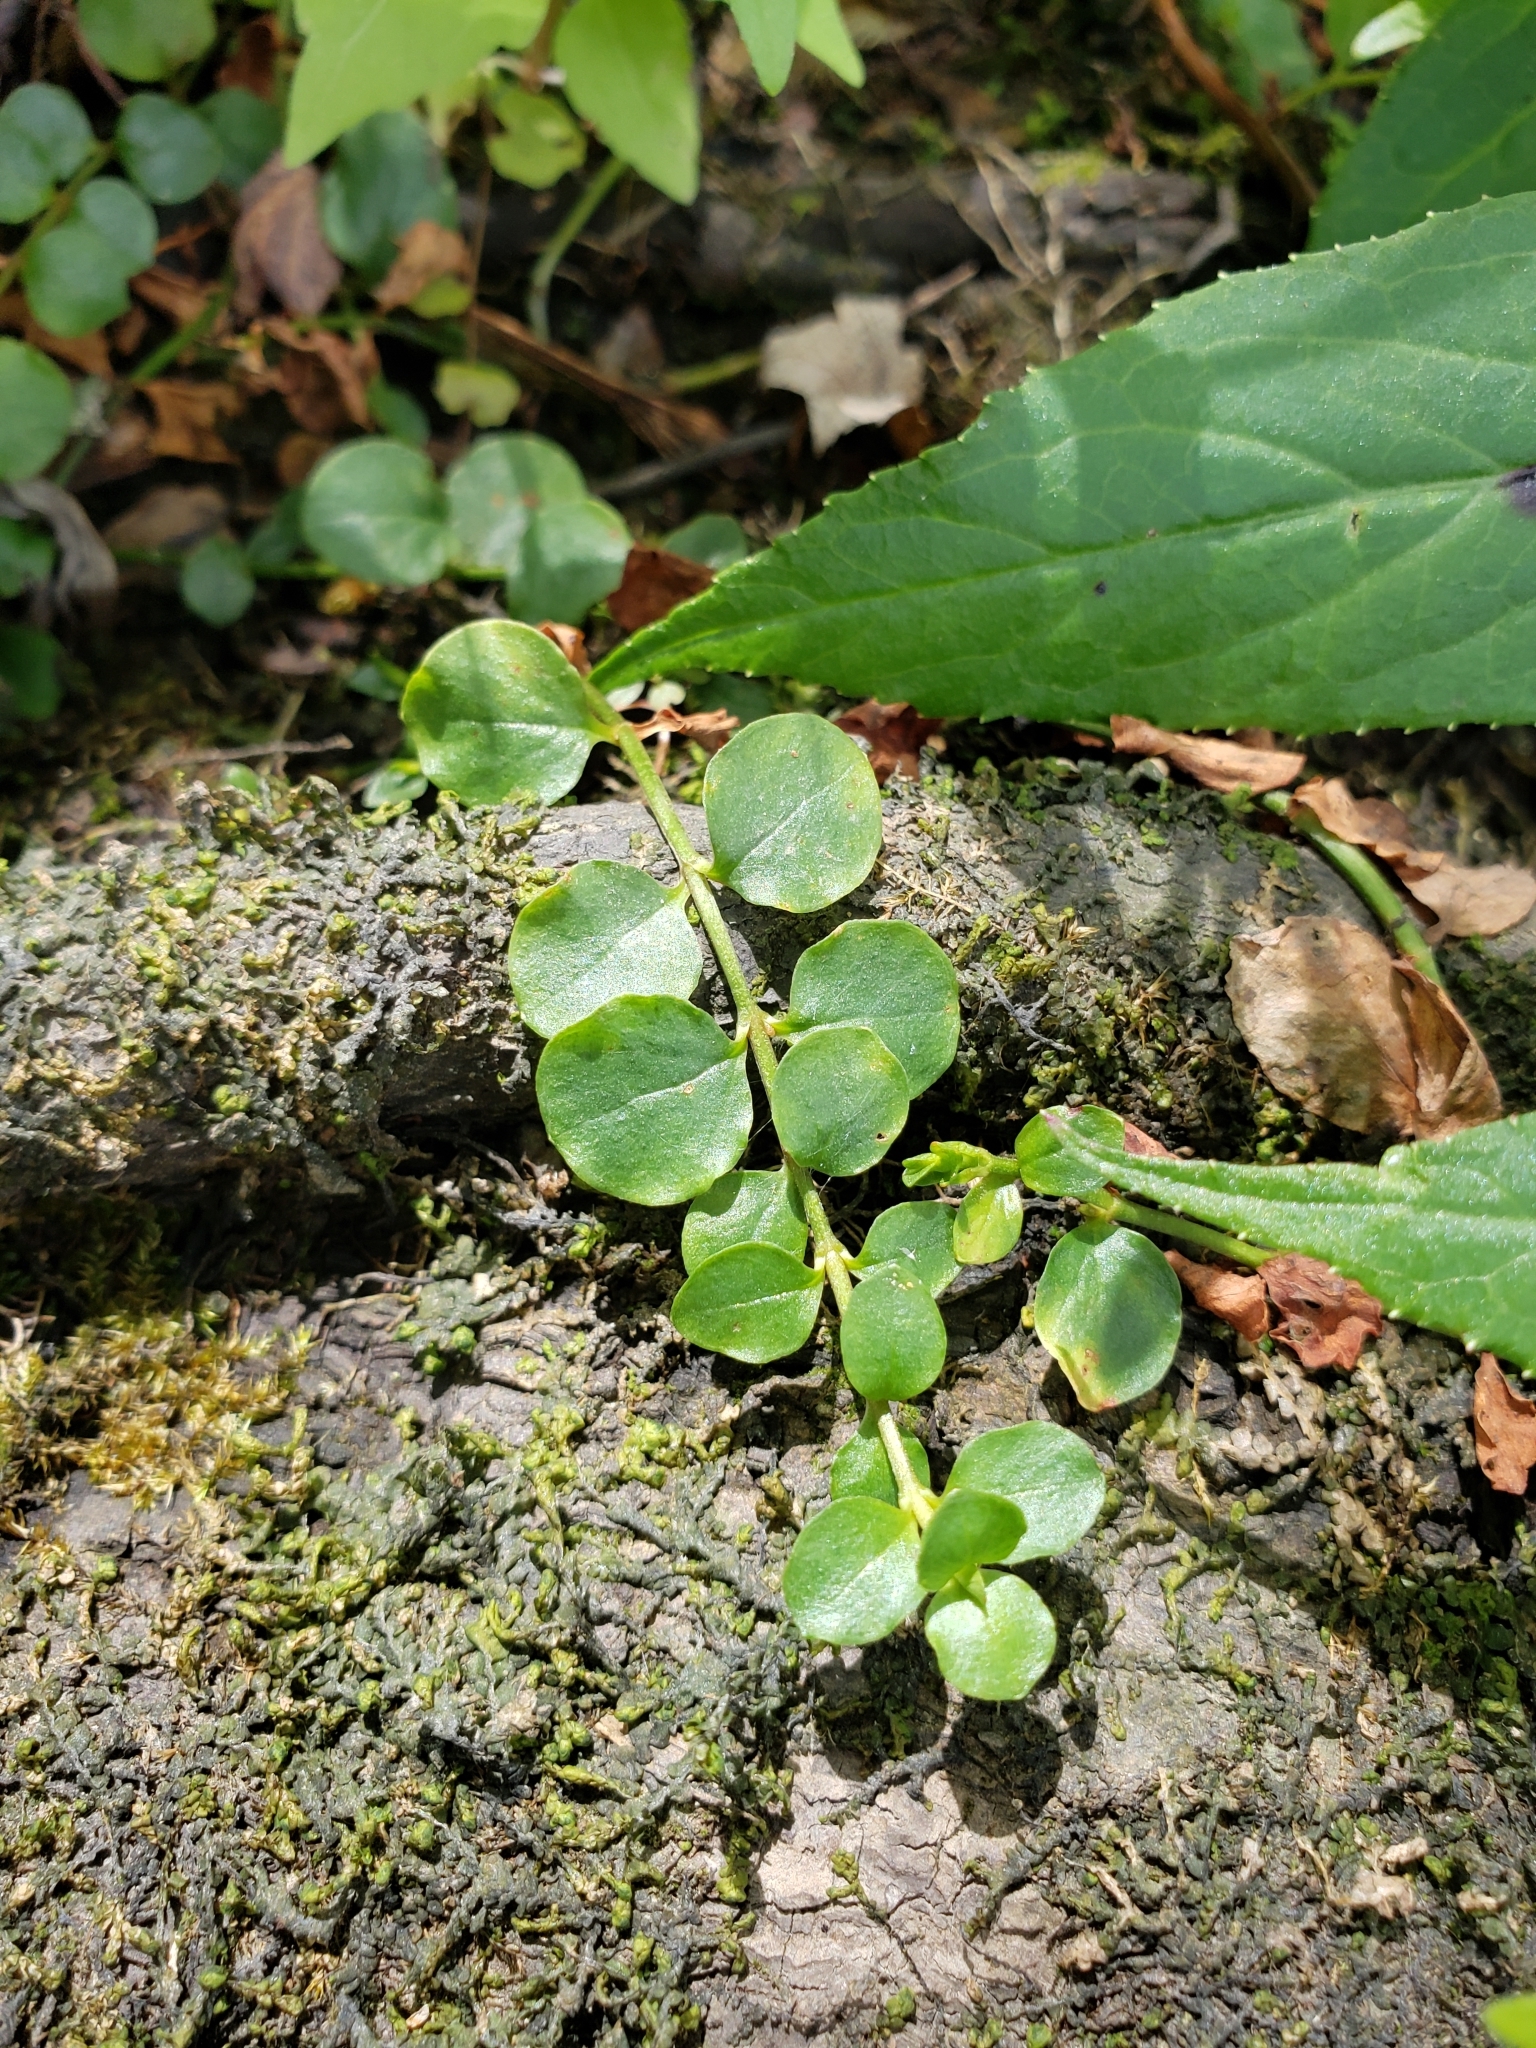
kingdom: Plantae
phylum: Tracheophyta
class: Magnoliopsida
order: Ericales
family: Primulaceae
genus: Lysimachia
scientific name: Lysimachia nummularia
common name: Moneywort
